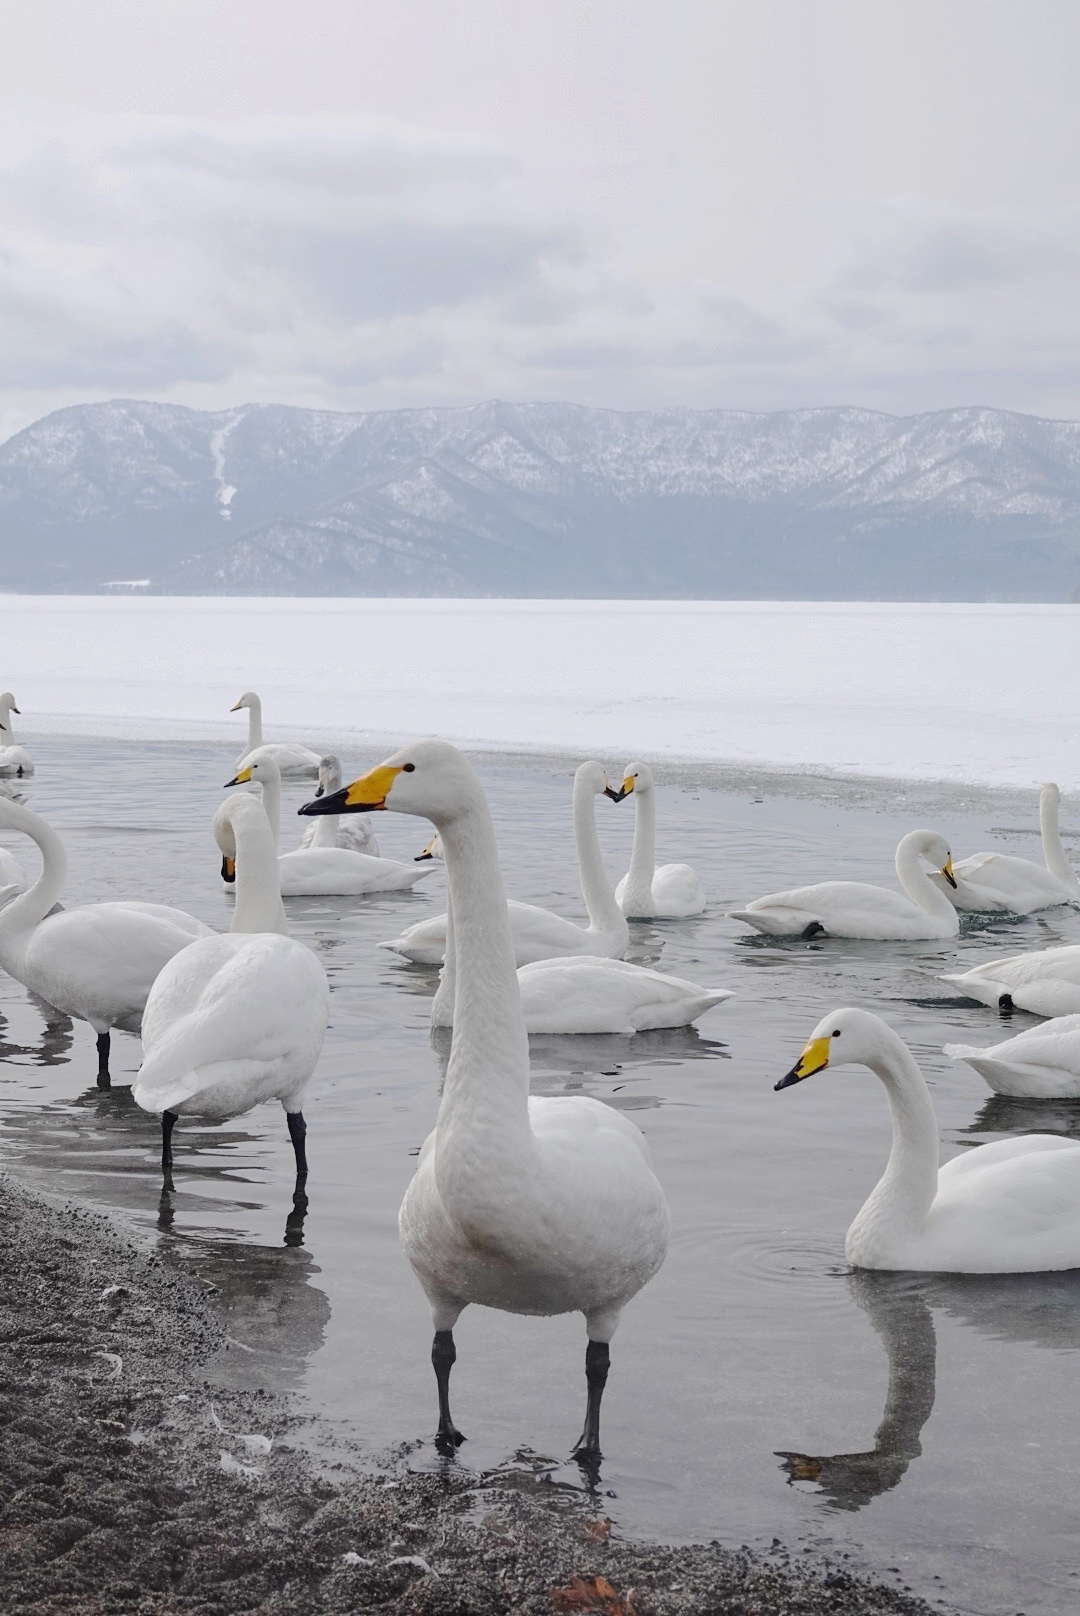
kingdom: Animalia
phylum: Chordata
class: Aves
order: Anseriformes
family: Anatidae
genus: Cygnus
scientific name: Cygnus cygnus
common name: Whooper swan
